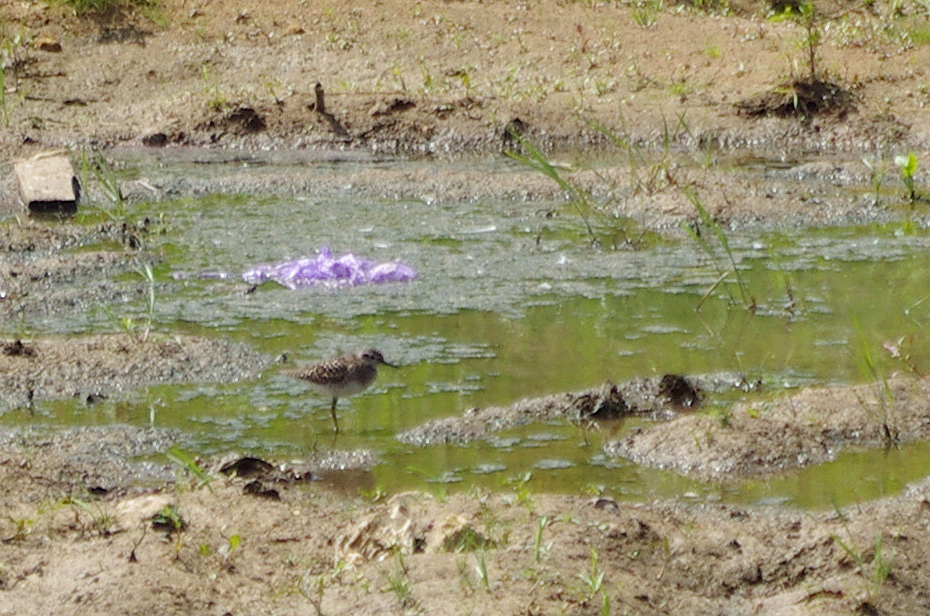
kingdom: Animalia
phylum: Chordata
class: Aves
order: Charadriiformes
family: Scolopacidae
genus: Tringa
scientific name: Tringa glareola
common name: Wood sandpiper
